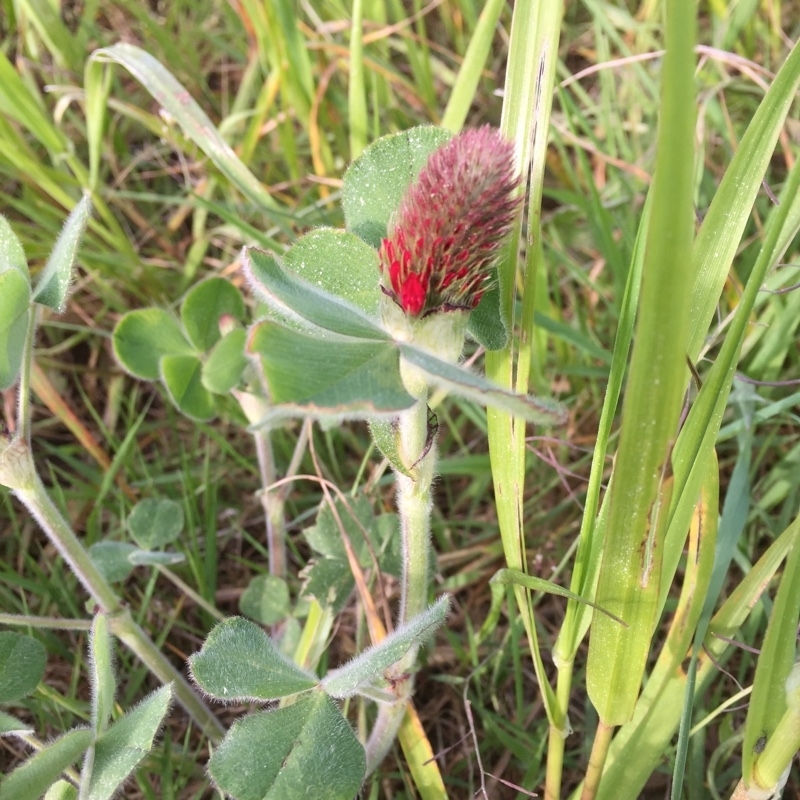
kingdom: Plantae
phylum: Tracheophyta
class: Magnoliopsida
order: Fabales
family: Fabaceae
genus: Trifolium
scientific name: Trifolium incarnatum
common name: Crimson clover
